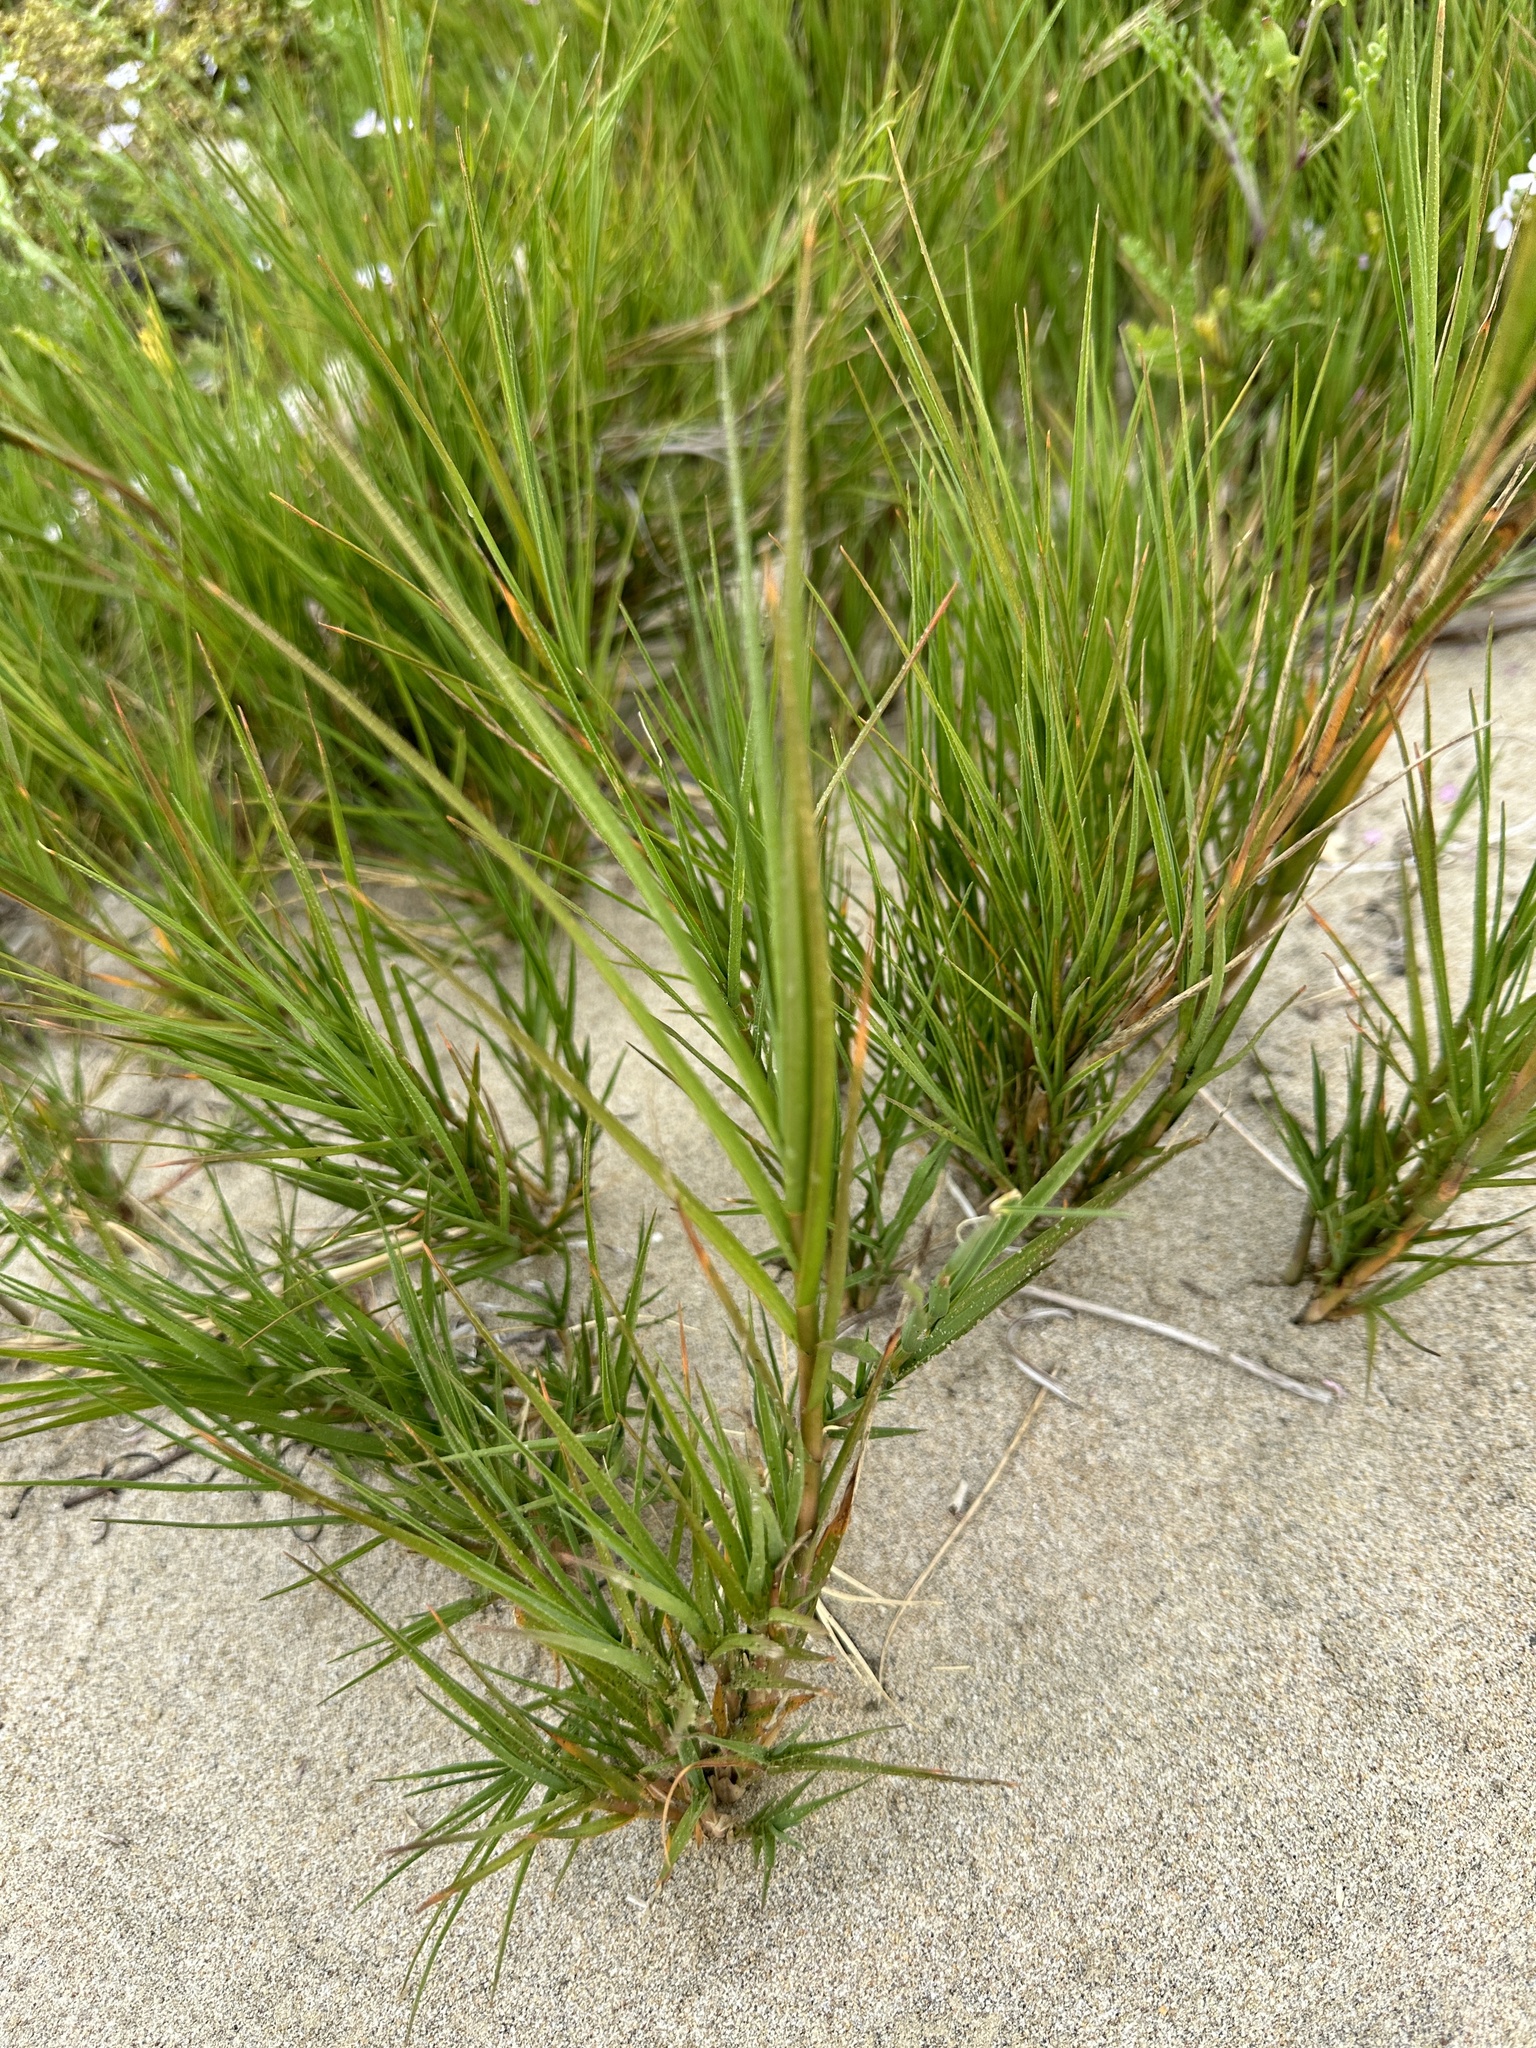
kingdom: Plantae
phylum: Tracheophyta
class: Liliopsida
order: Poales
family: Poaceae
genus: Distichlis
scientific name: Distichlis spicata
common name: Saltgrass
